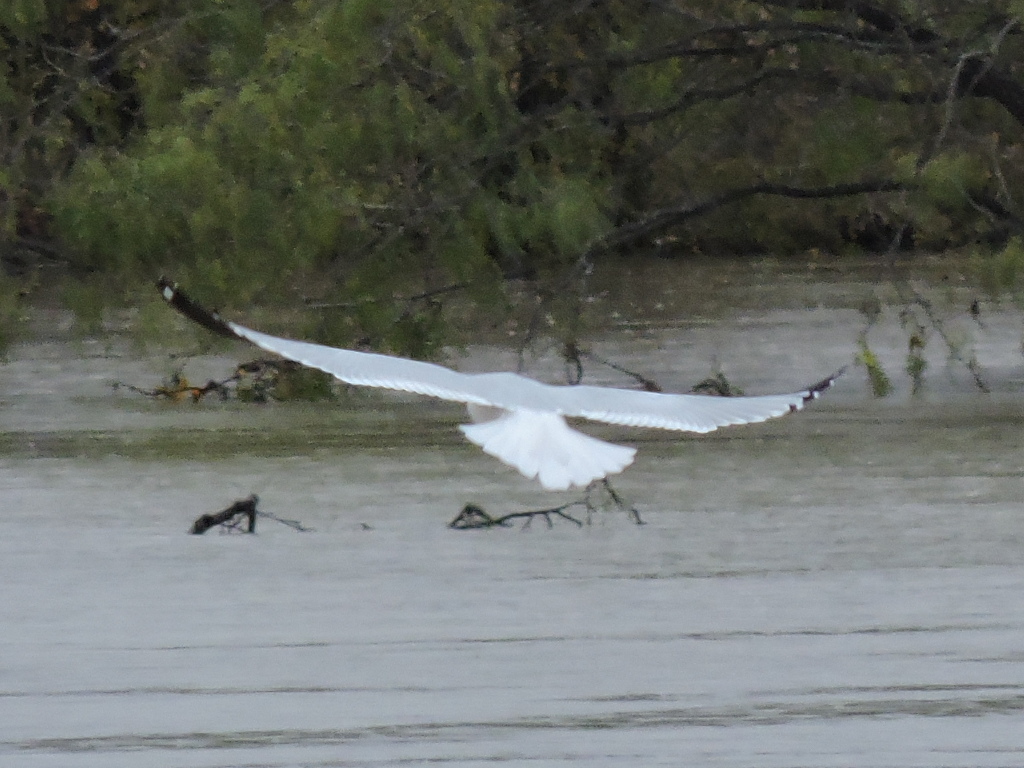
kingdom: Animalia
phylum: Chordata
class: Aves
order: Charadriiformes
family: Laridae
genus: Larus
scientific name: Larus delawarensis
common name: Ring-billed gull
